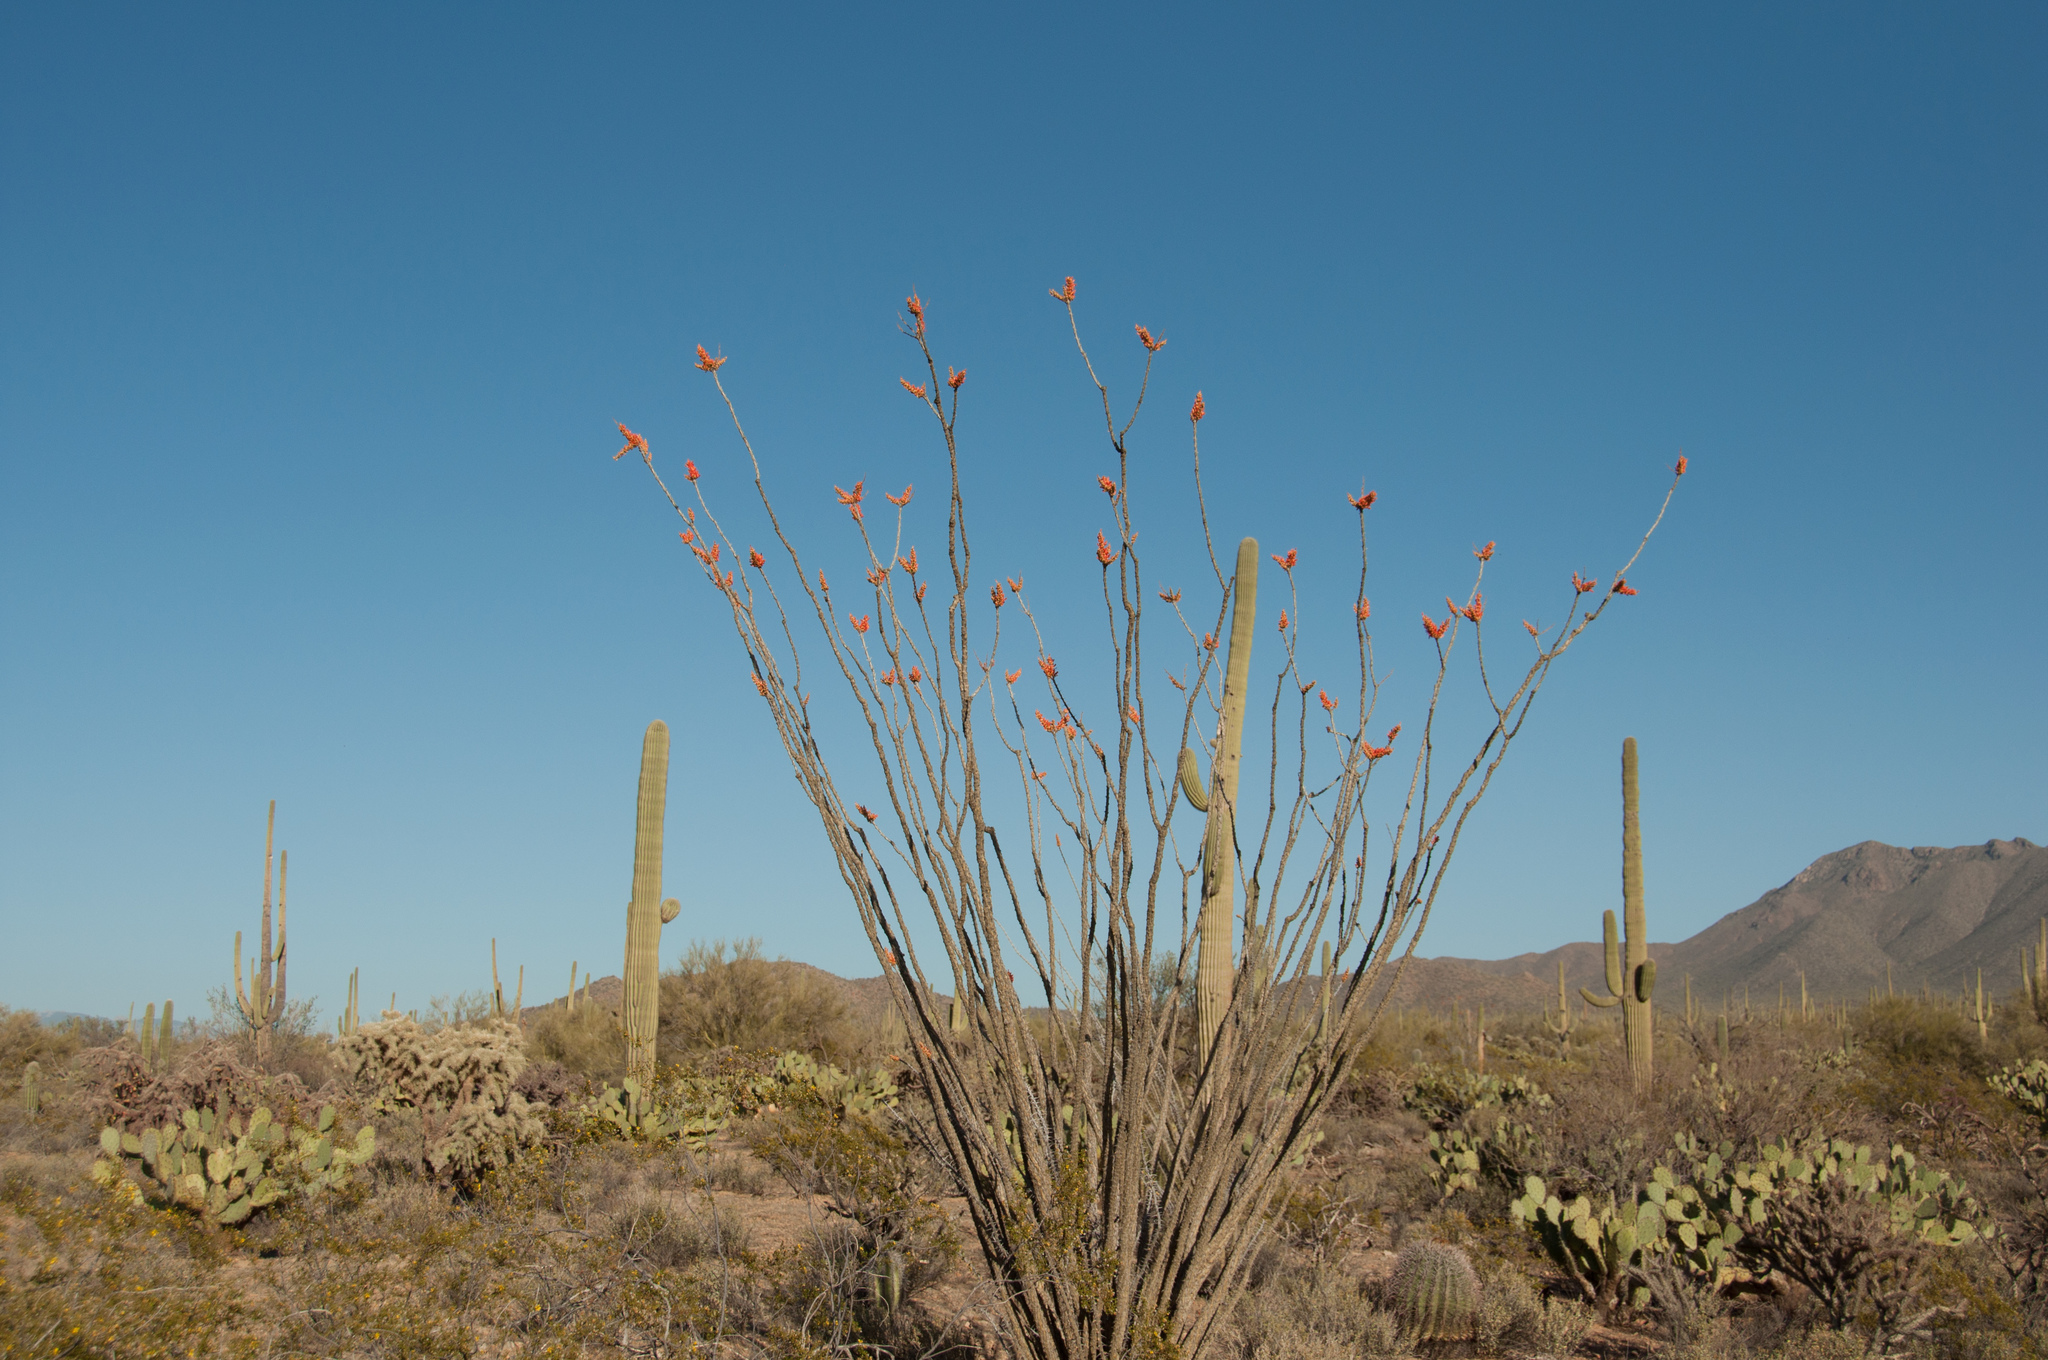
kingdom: Plantae
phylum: Tracheophyta
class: Magnoliopsida
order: Ericales
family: Fouquieriaceae
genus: Fouquieria
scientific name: Fouquieria splendens
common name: Vine-cactus
